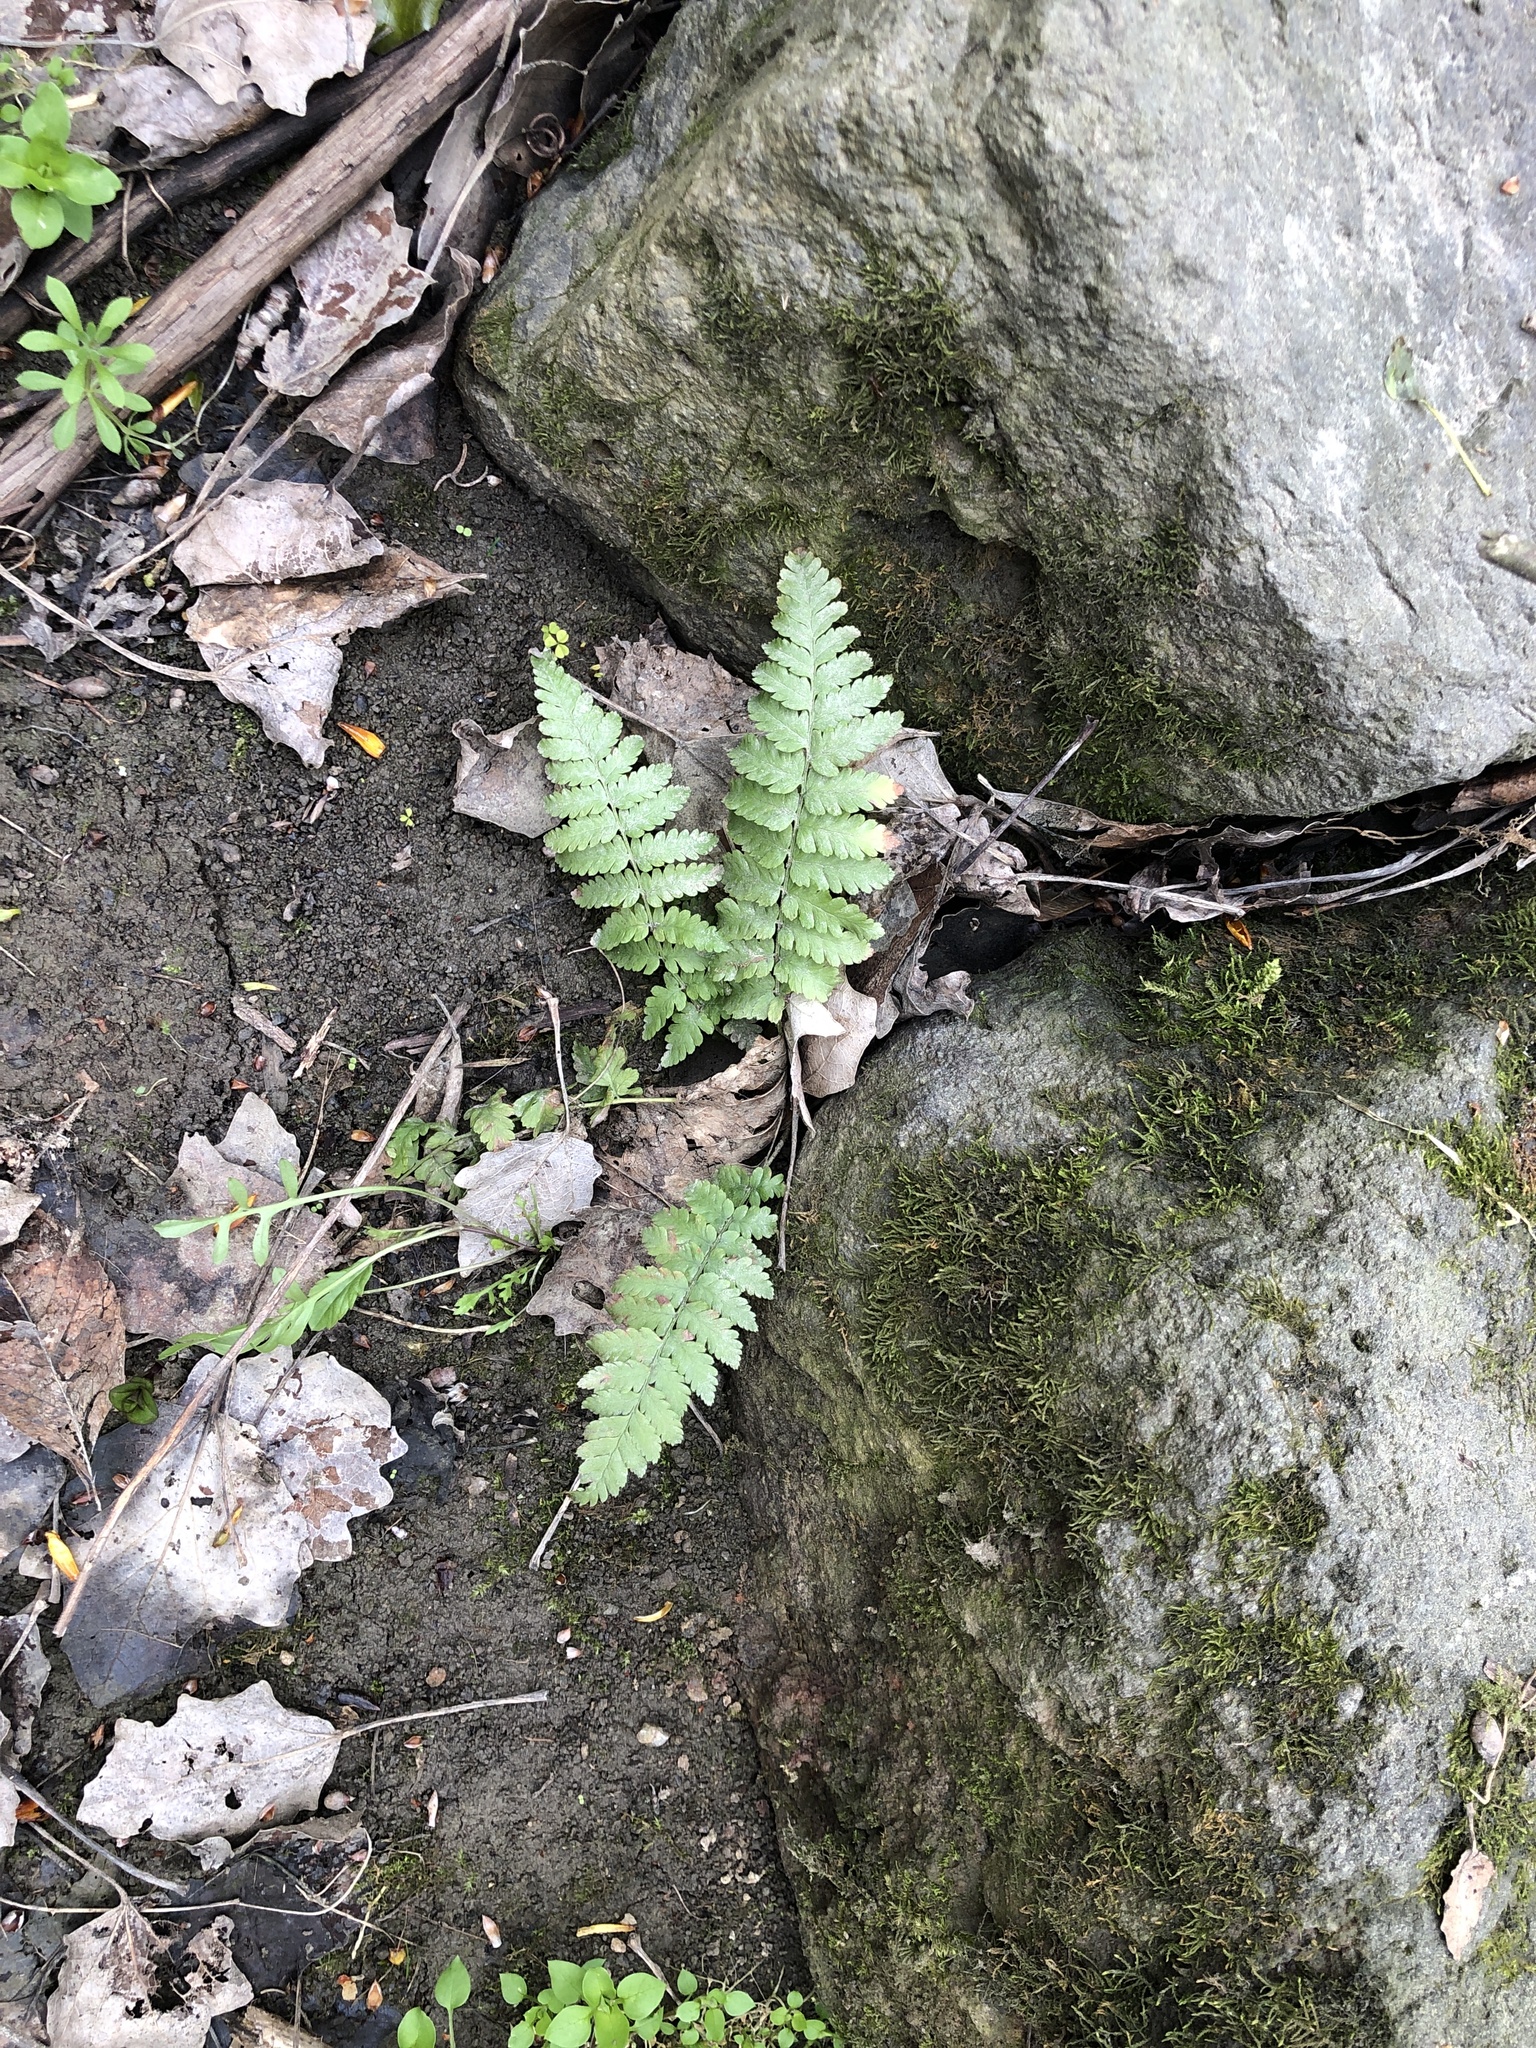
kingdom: Plantae
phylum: Tracheophyta
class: Polypodiopsida
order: Polypodiales
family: Dryopteridaceae
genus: Dryopteris
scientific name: Dryopteris filix-mas
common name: Male fern
